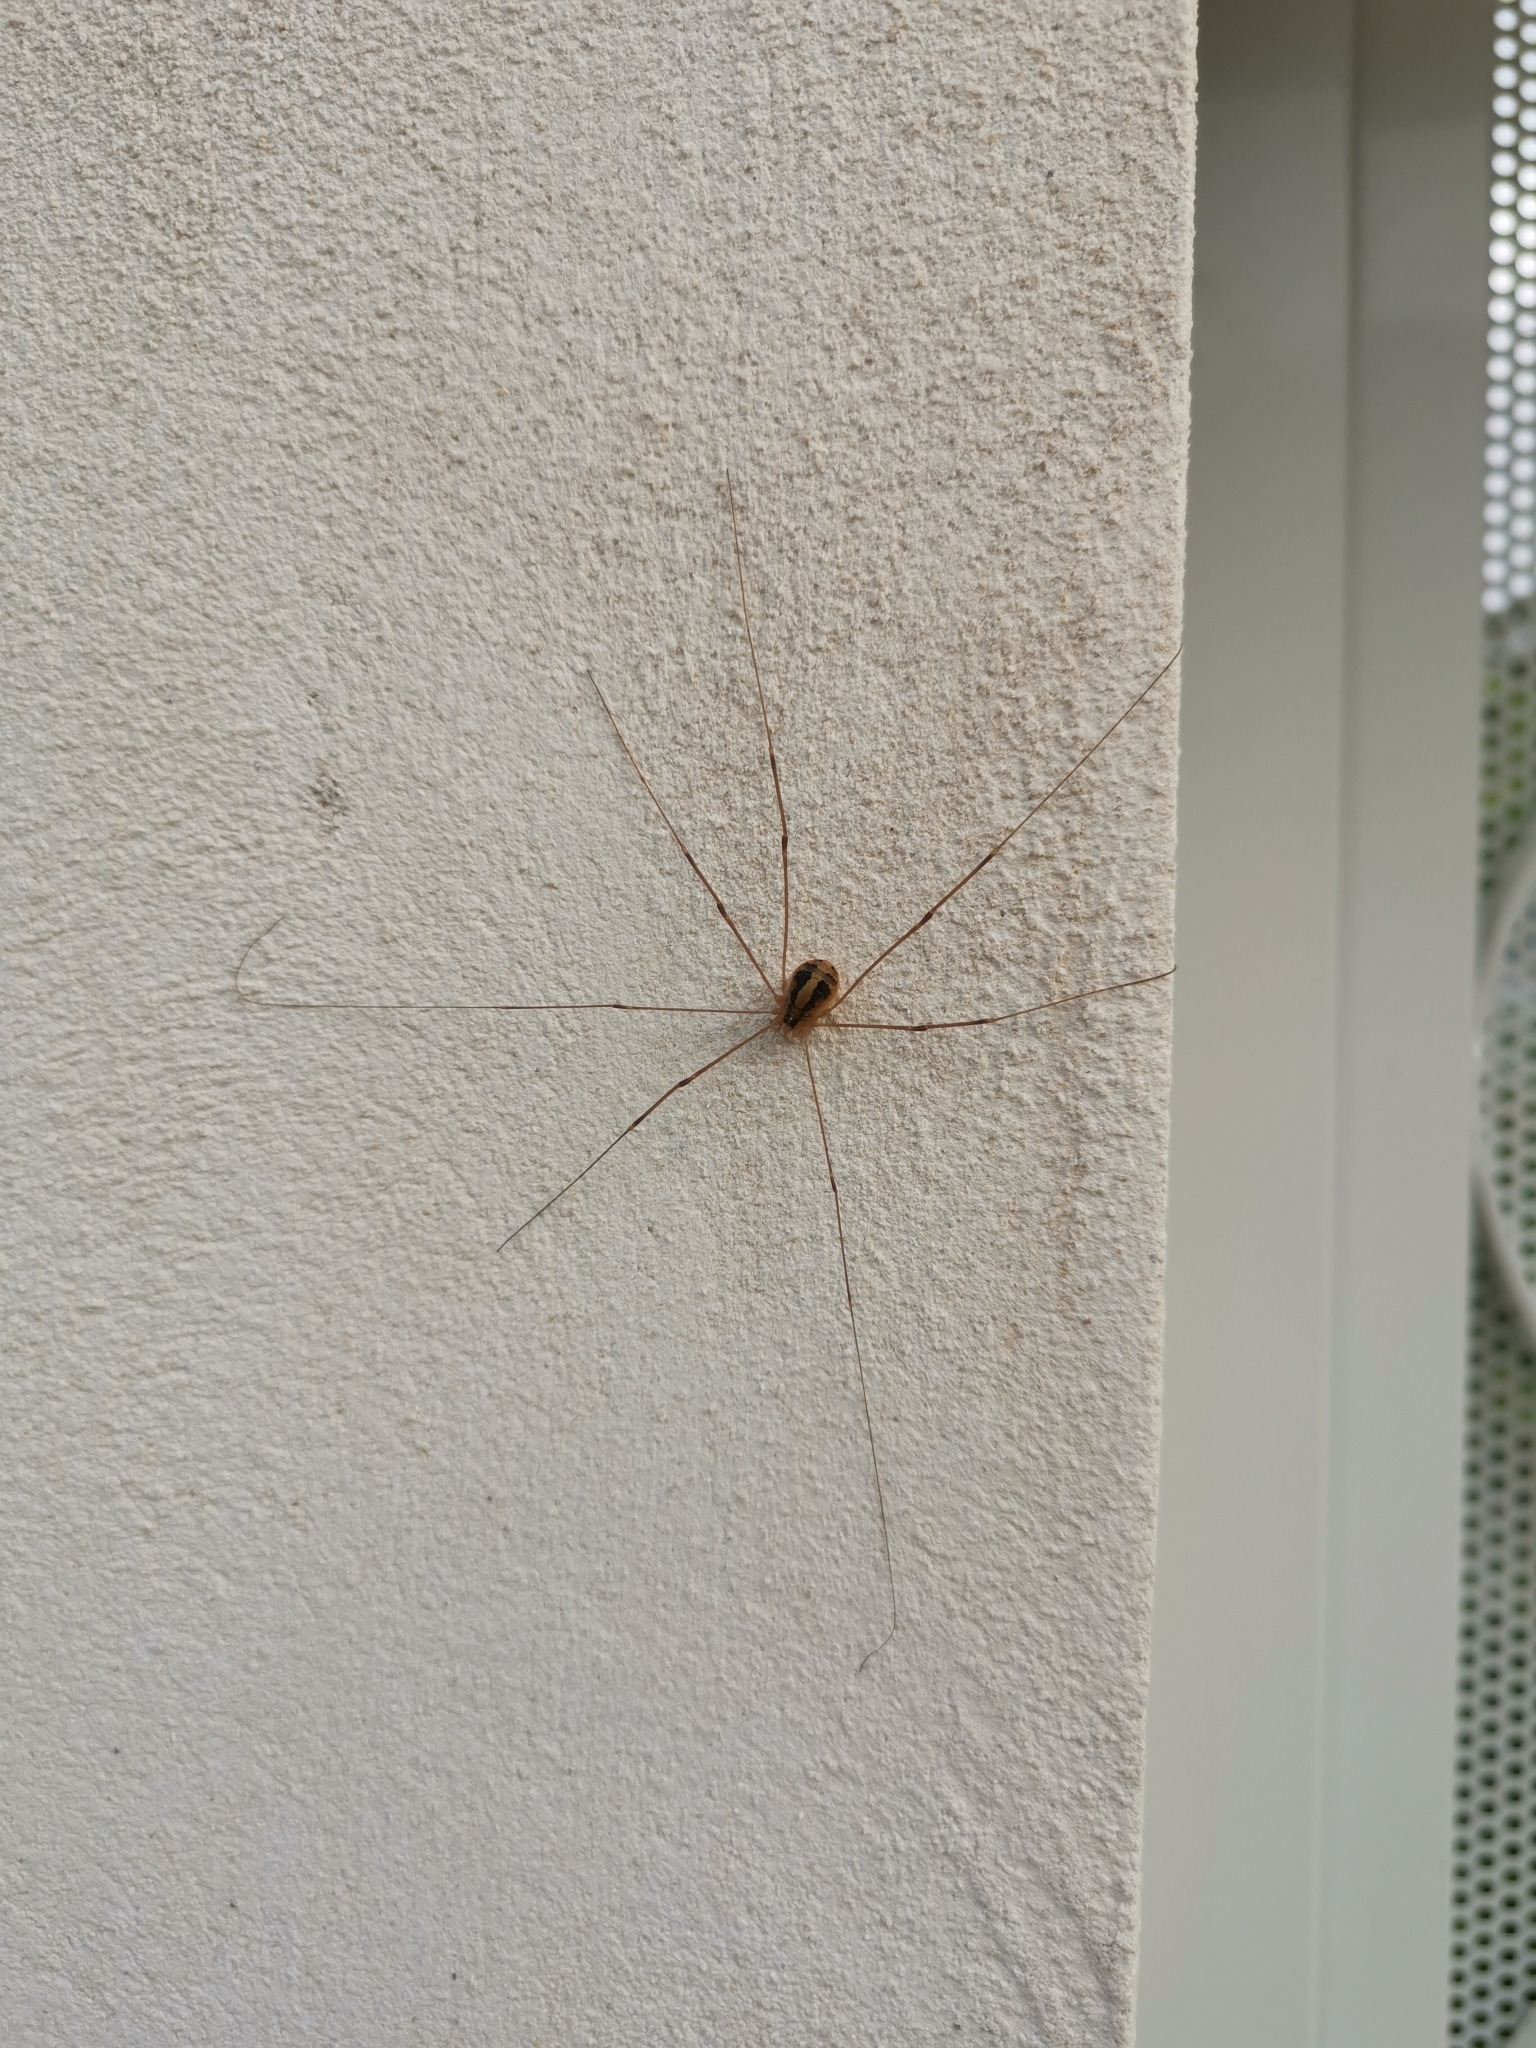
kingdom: Animalia
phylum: Arthropoda
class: Arachnida
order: Opiliones
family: Sclerosomatidae
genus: Cosmobunus
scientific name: Cosmobunus granarius
